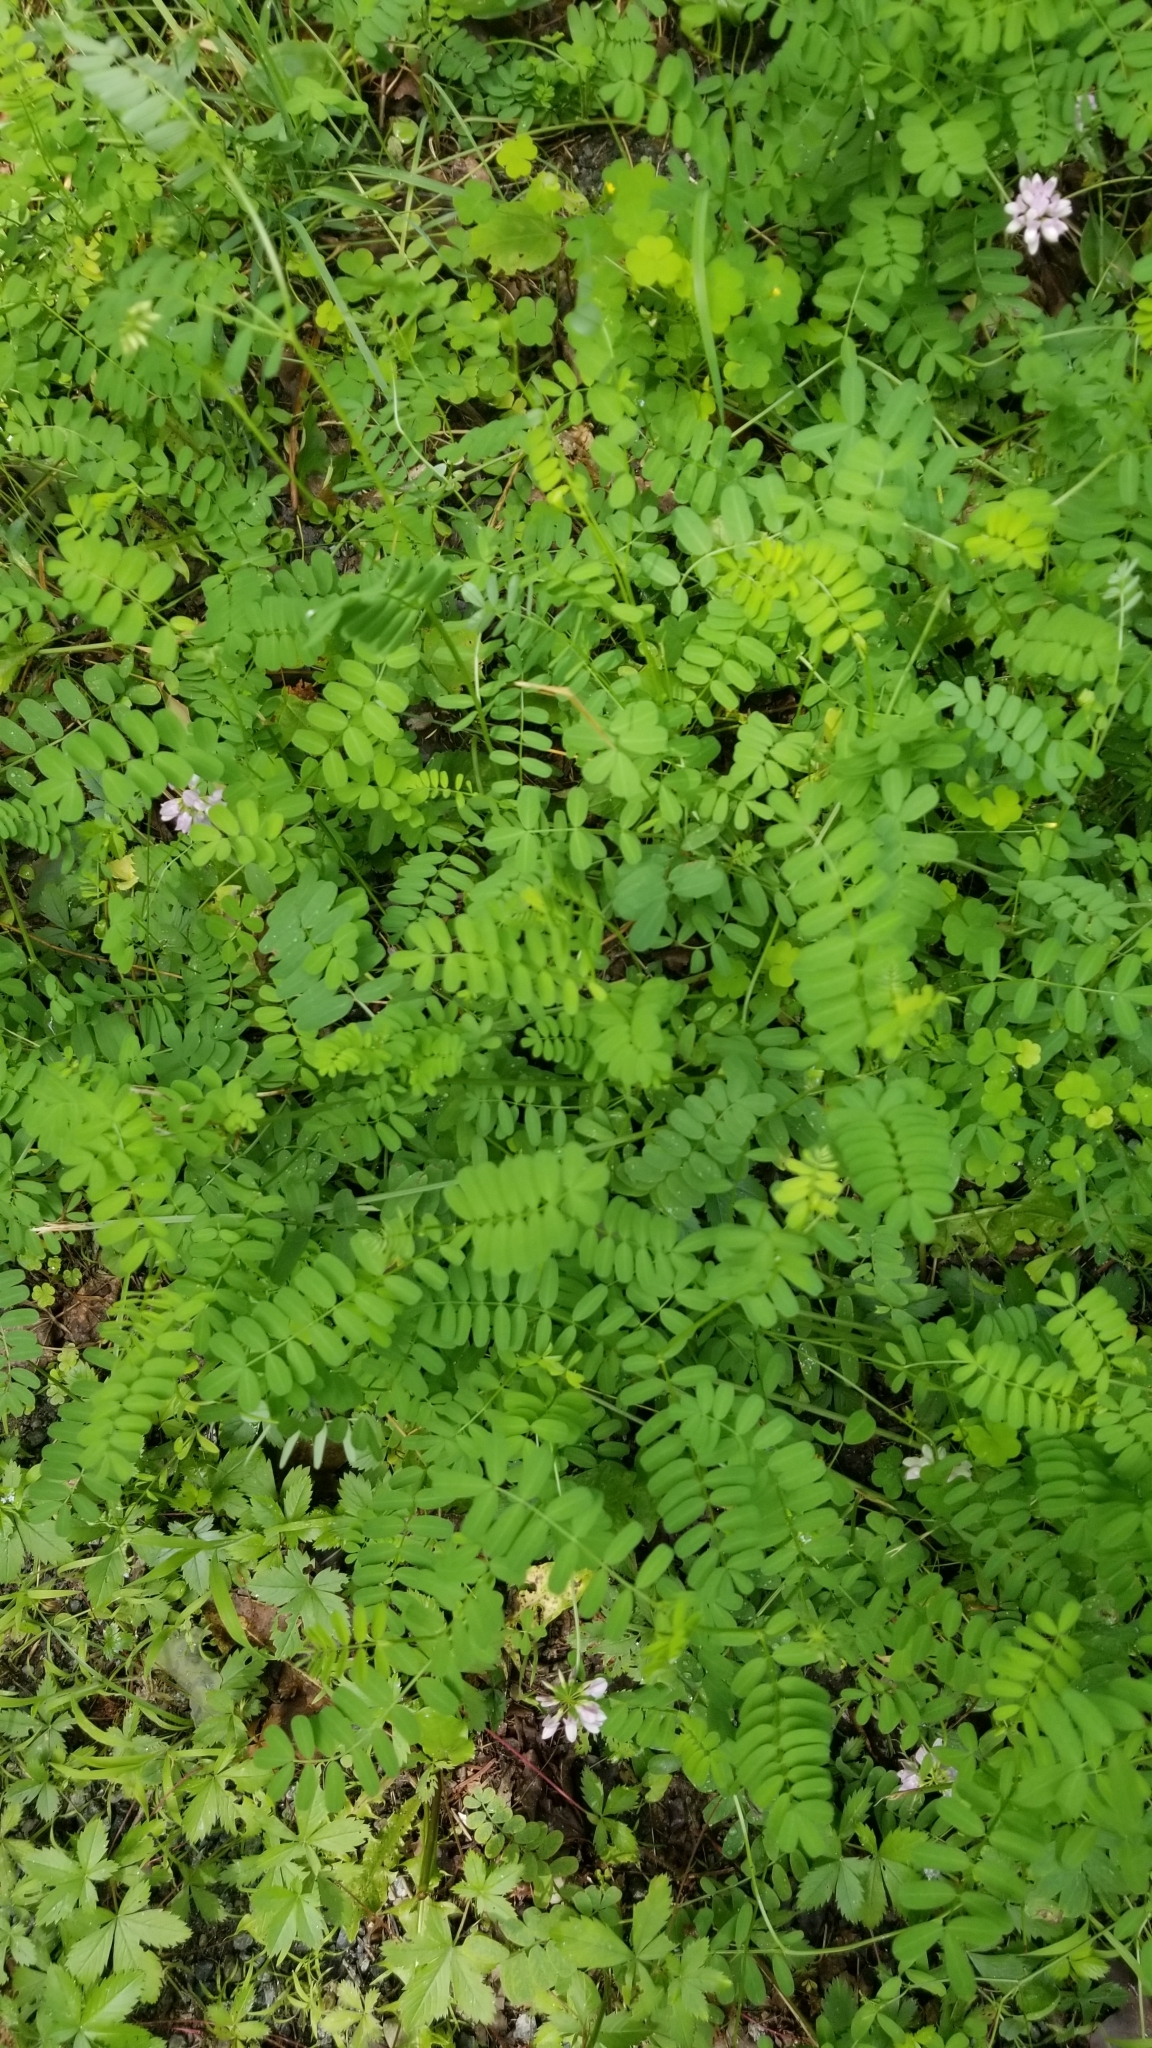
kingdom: Plantae
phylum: Tracheophyta
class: Magnoliopsida
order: Fabales
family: Fabaceae
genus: Coronilla
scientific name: Coronilla varia
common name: Crownvetch
